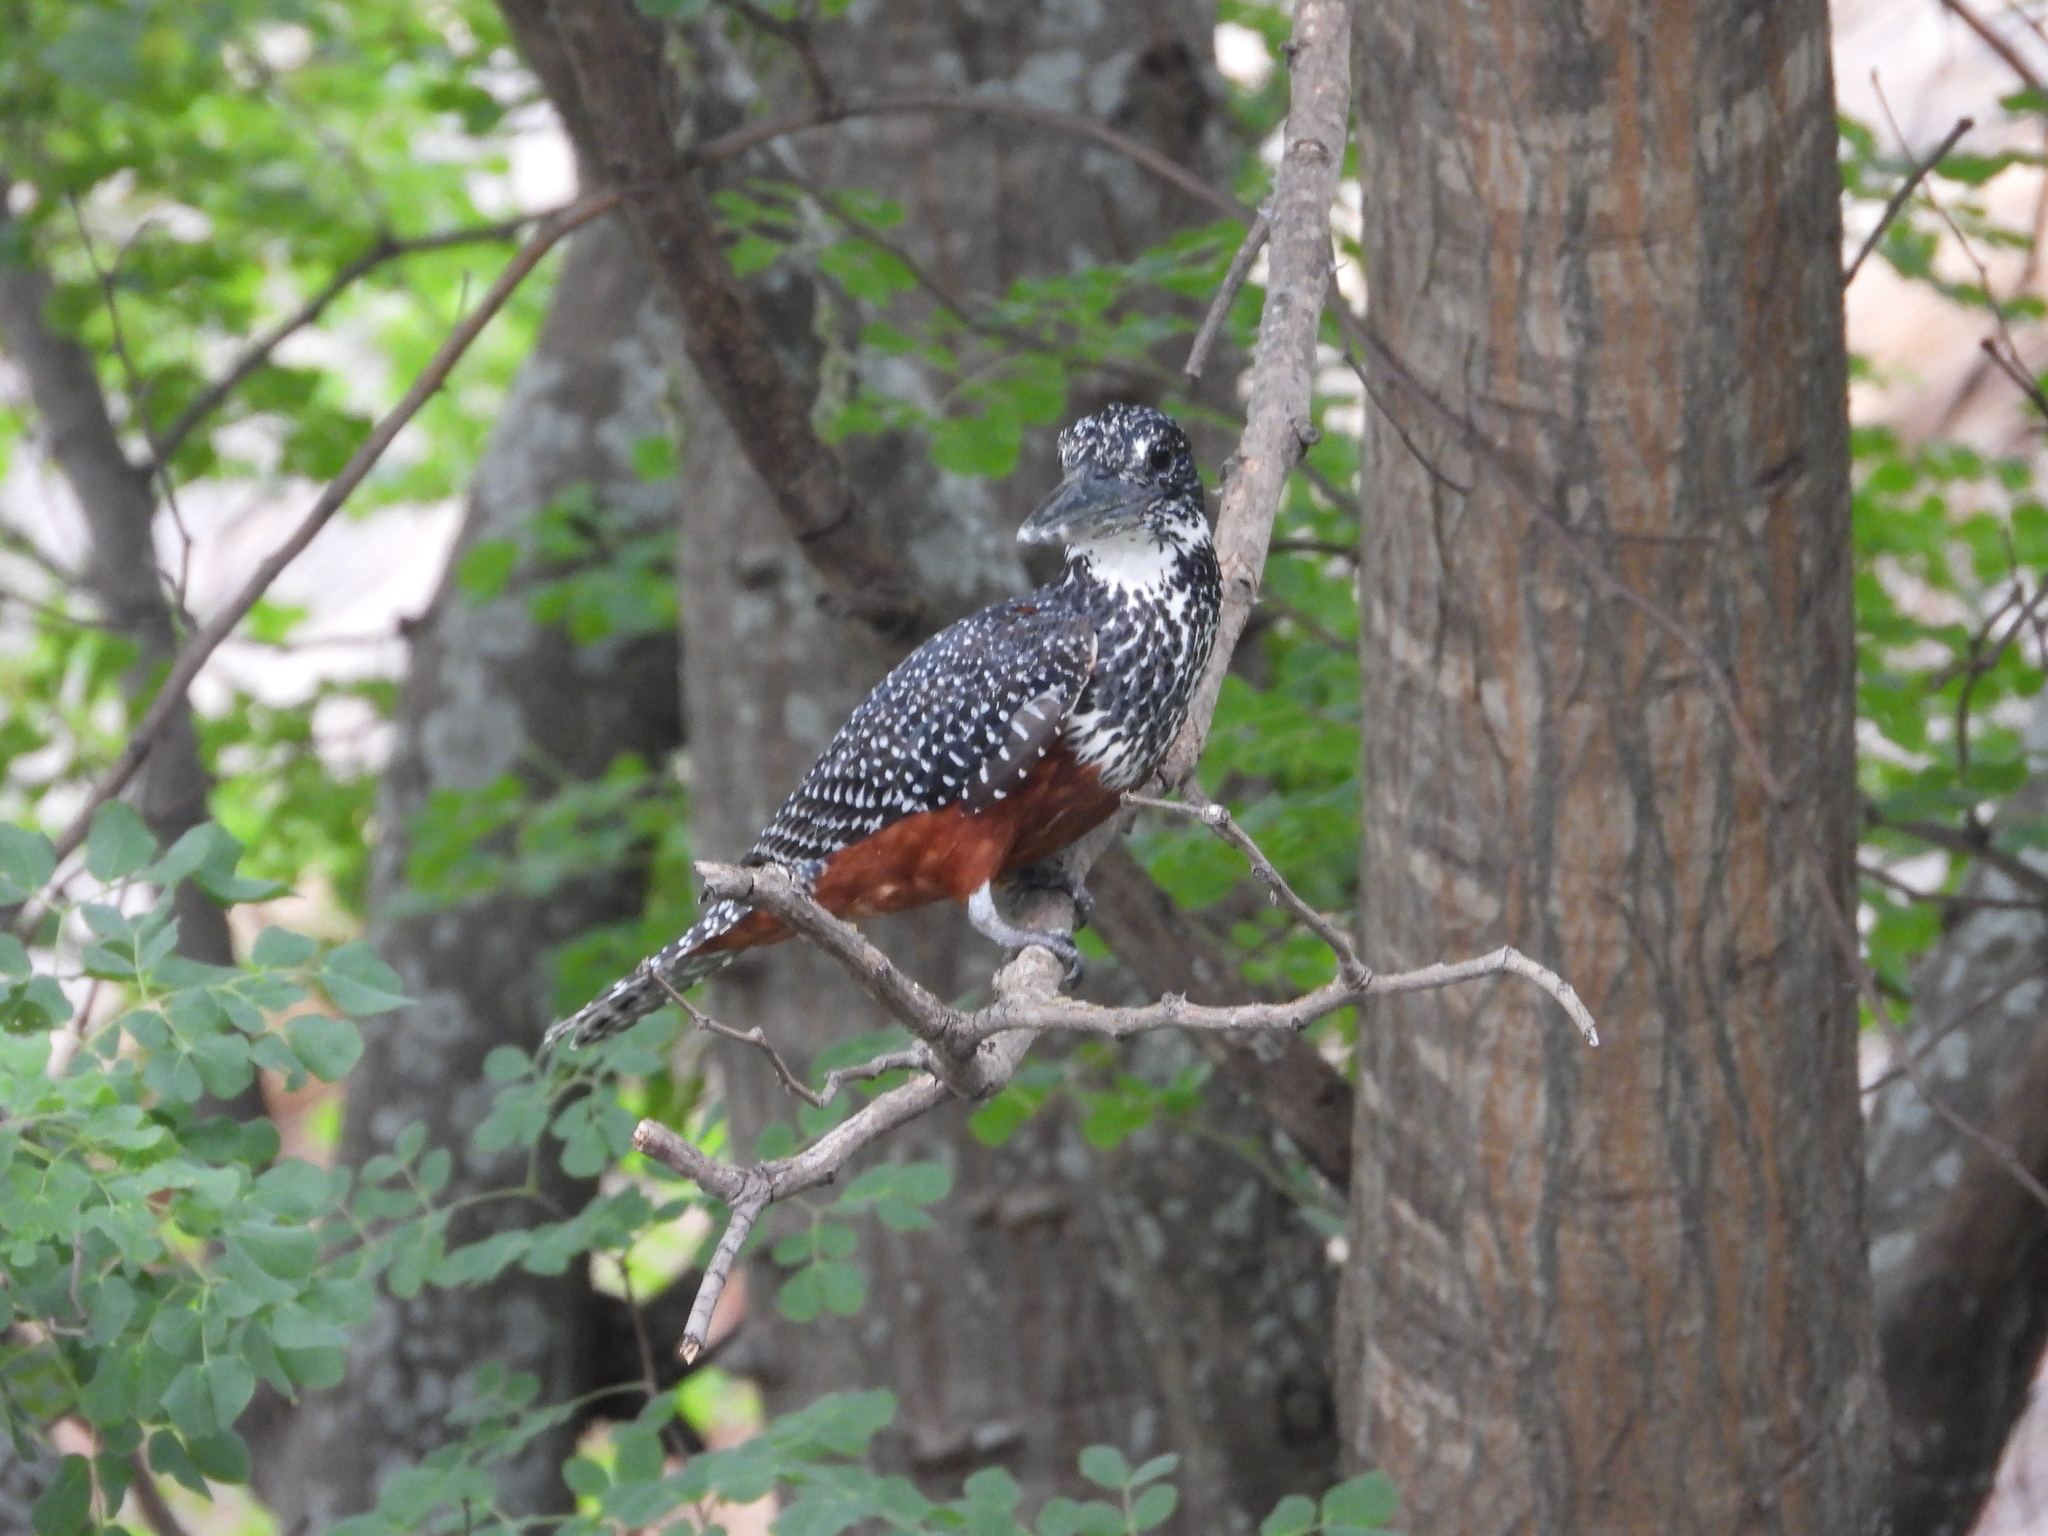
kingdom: Animalia
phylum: Chordata
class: Aves
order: Coraciiformes
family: Alcedinidae
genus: Megaceryle
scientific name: Megaceryle maxima
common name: Giant kingfisher
